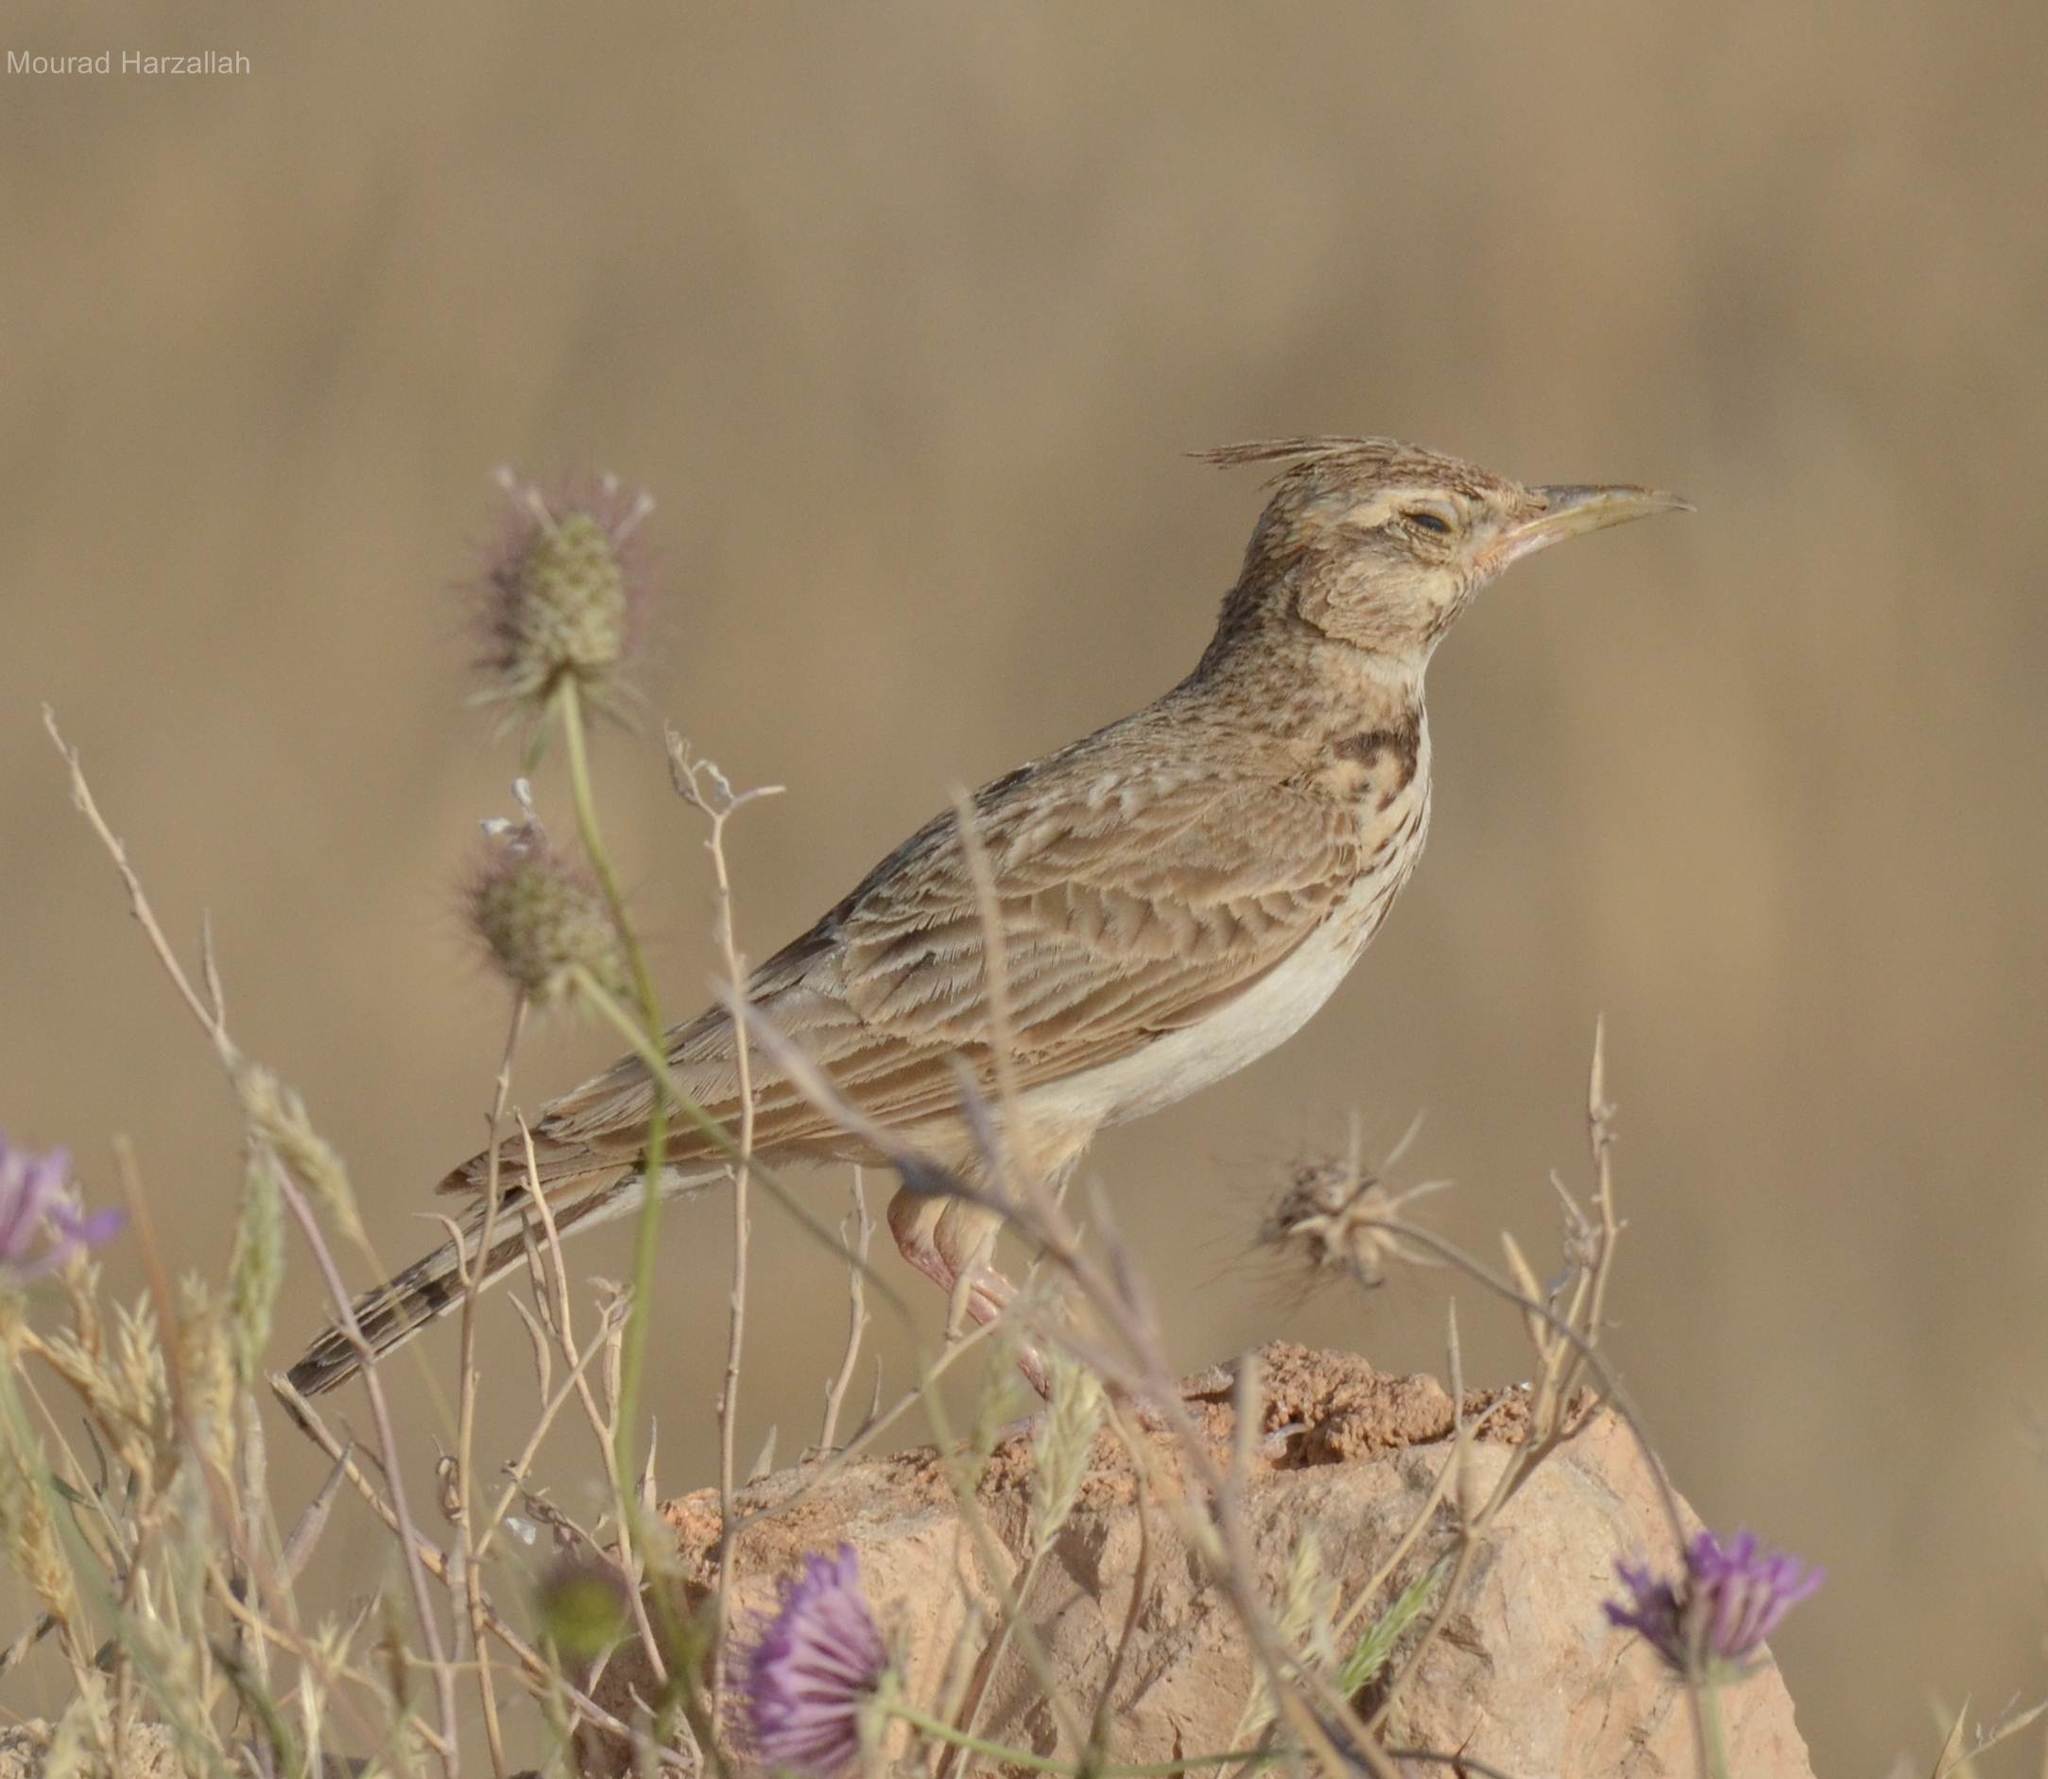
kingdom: Animalia
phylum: Chordata
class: Aves
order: Passeriformes
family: Alaudidae
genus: Galerida
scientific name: Galerida cristata
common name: Crested lark
